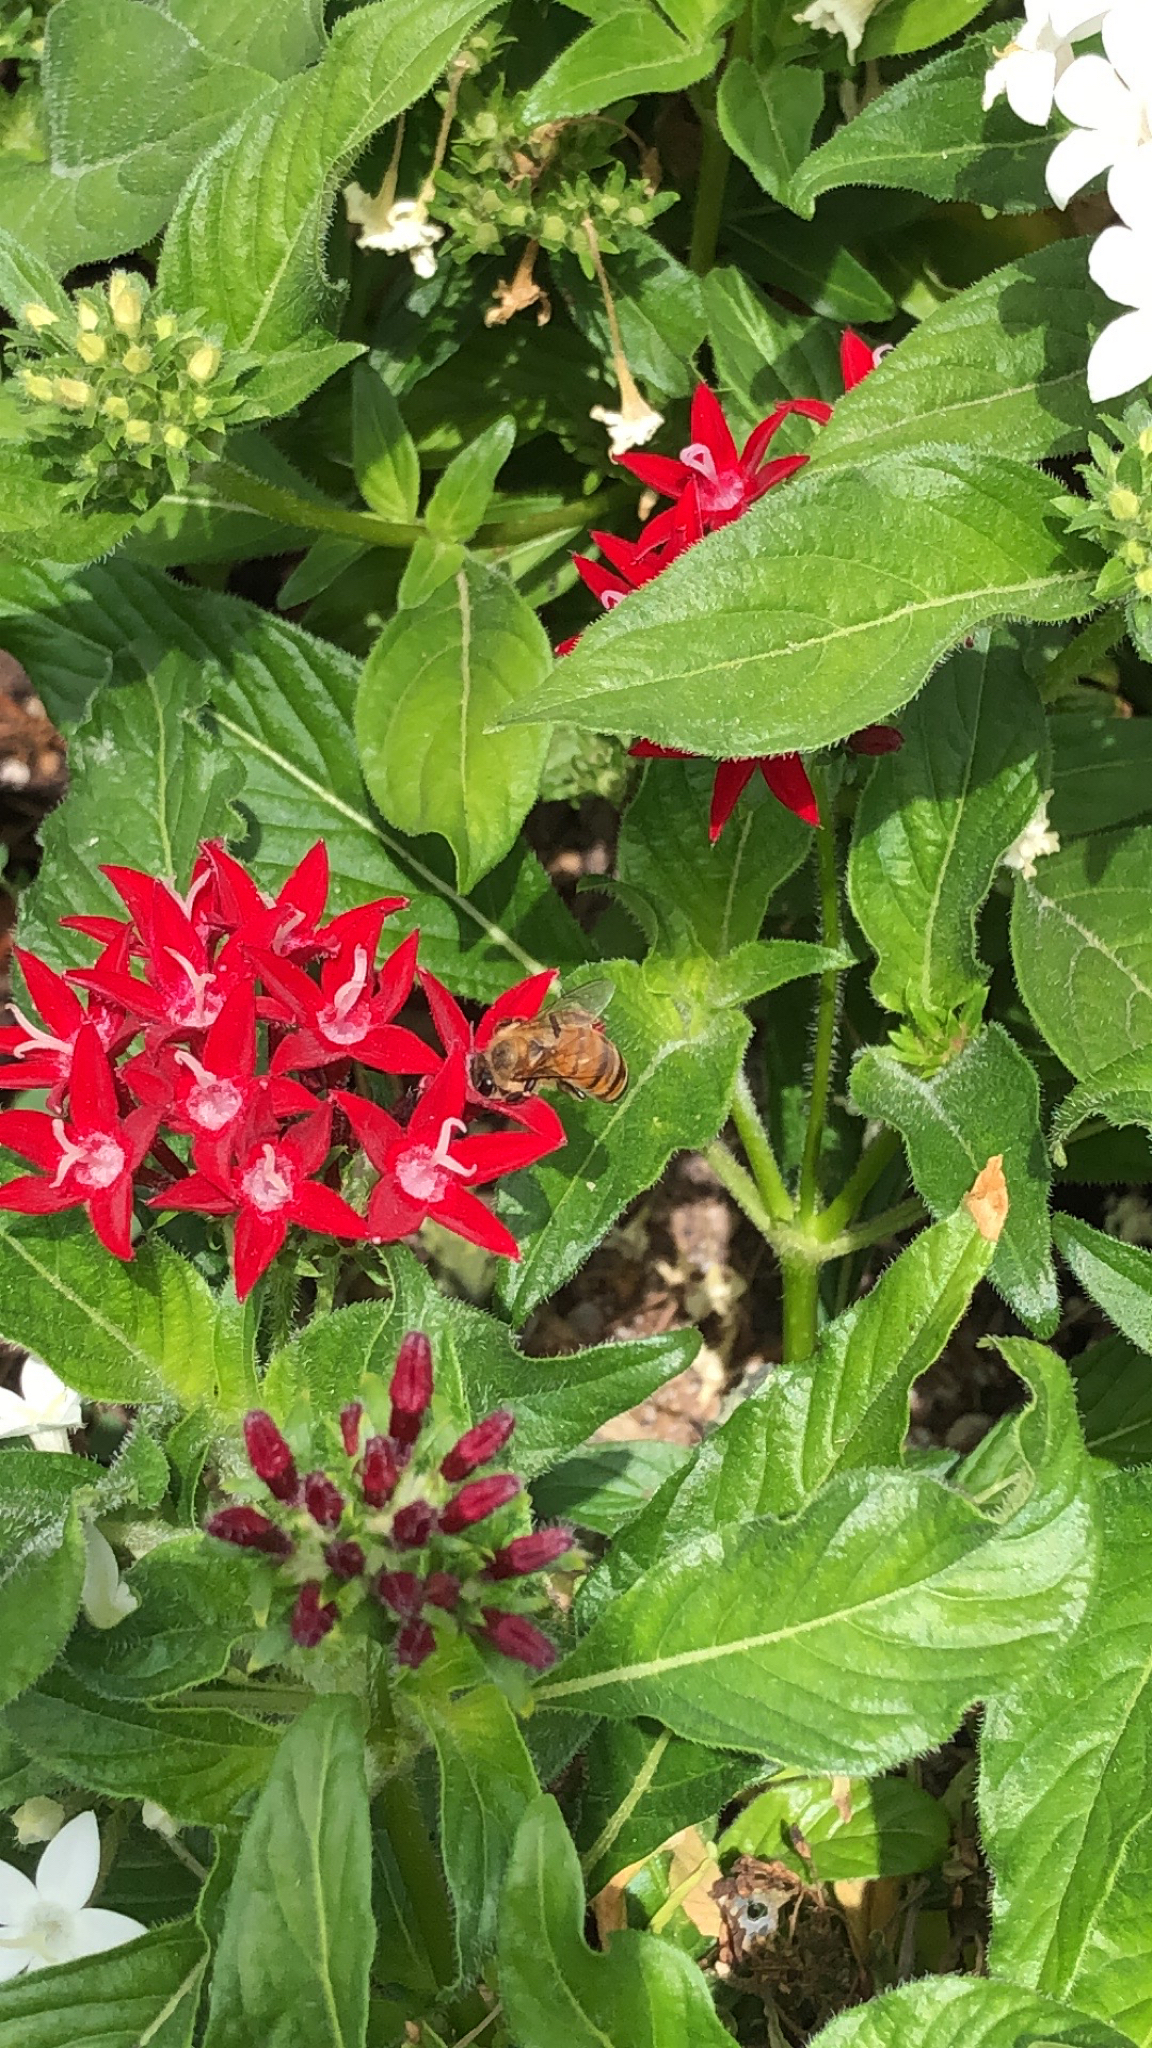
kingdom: Animalia
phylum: Arthropoda
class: Insecta
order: Hymenoptera
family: Apidae
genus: Apis
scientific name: Apis mellifera
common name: Honey bee
